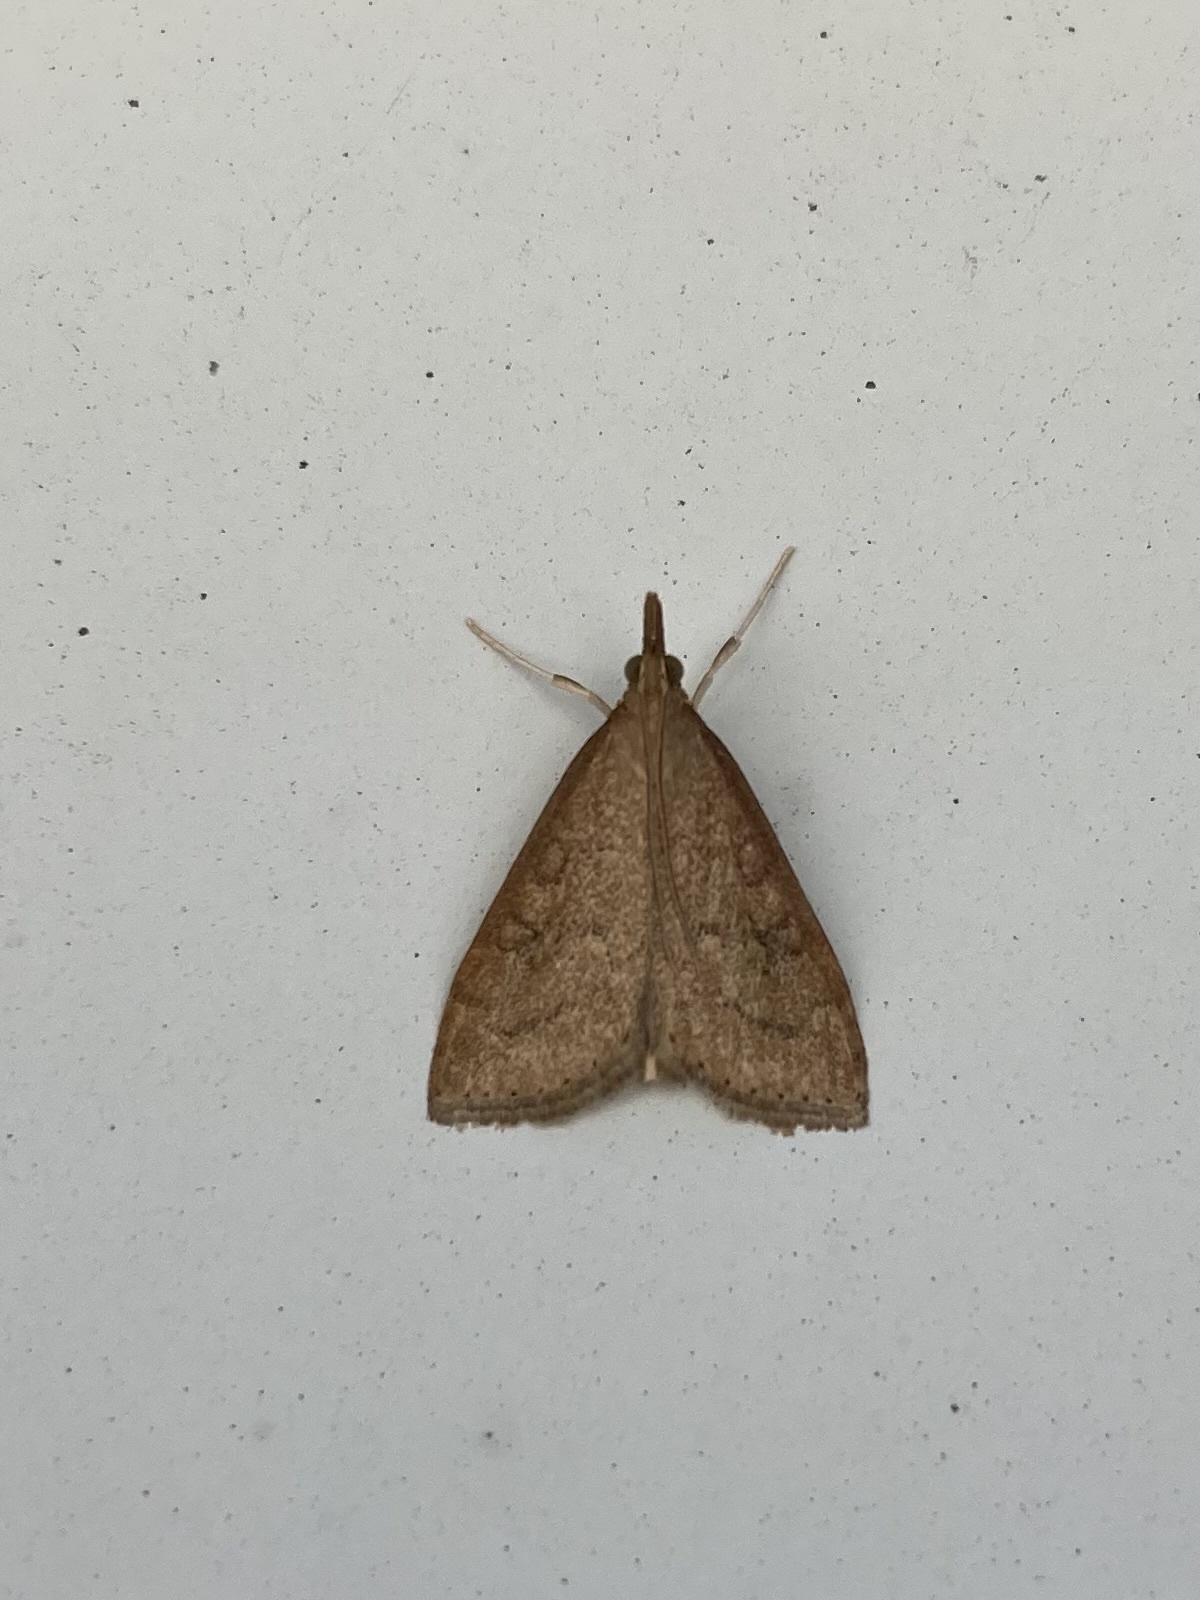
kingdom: Animalia
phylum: Arthropoda
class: Insecta
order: Lepidoptera
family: Crambidae
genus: Udea
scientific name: Udea rubigalis
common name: Celery leaftier moth
